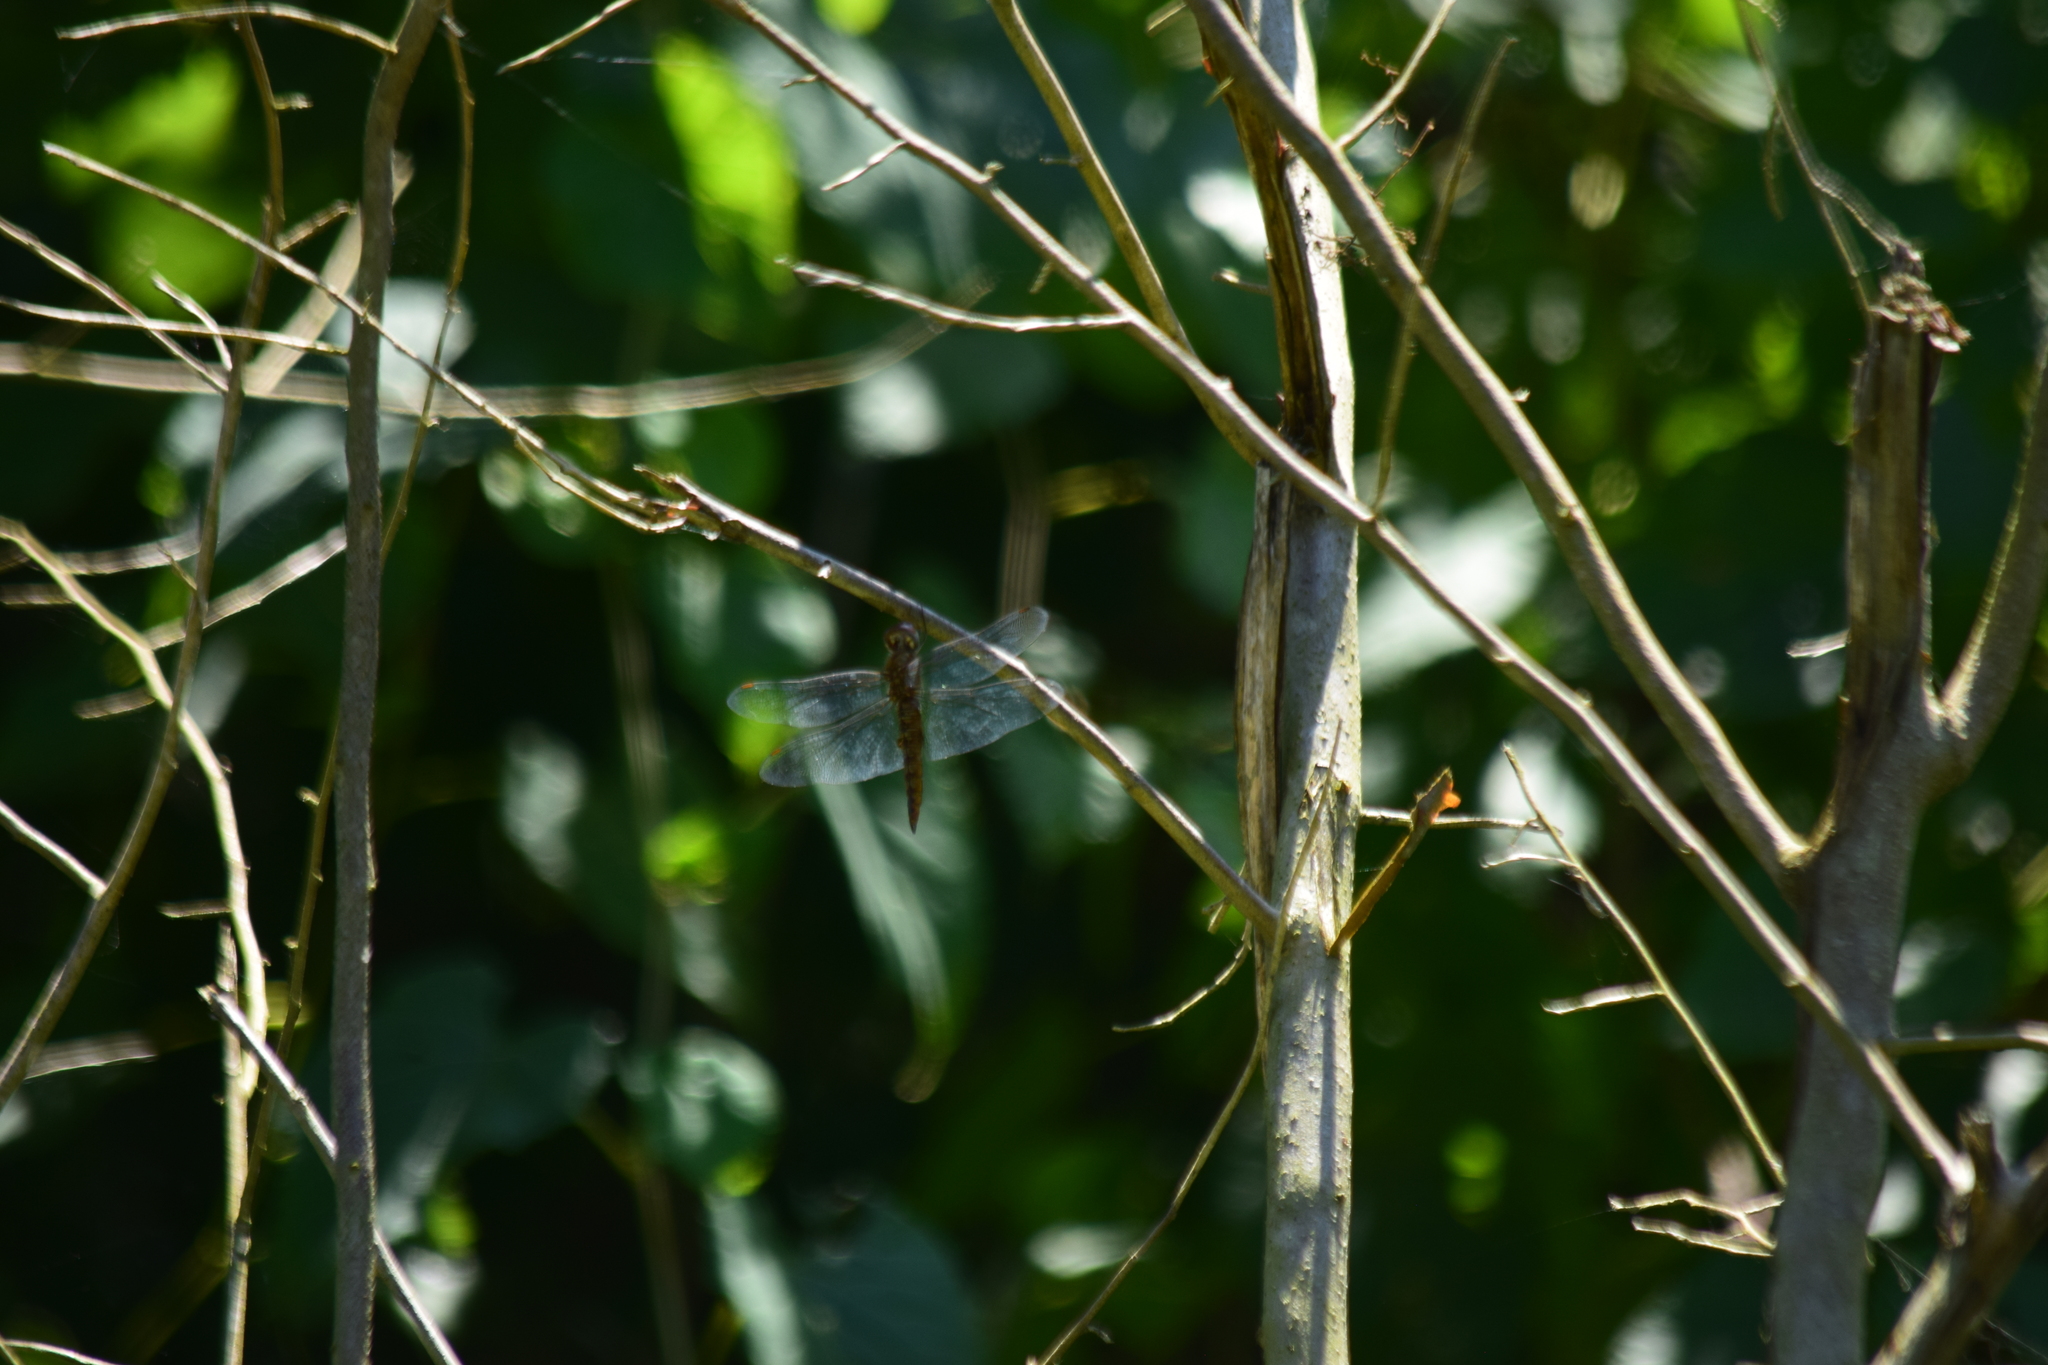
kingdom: Animalia
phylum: Arthropoda
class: Insecta
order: Odonata
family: Libellulidae
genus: Pantala
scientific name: Pantala hymenaea
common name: Spot-winged glider
